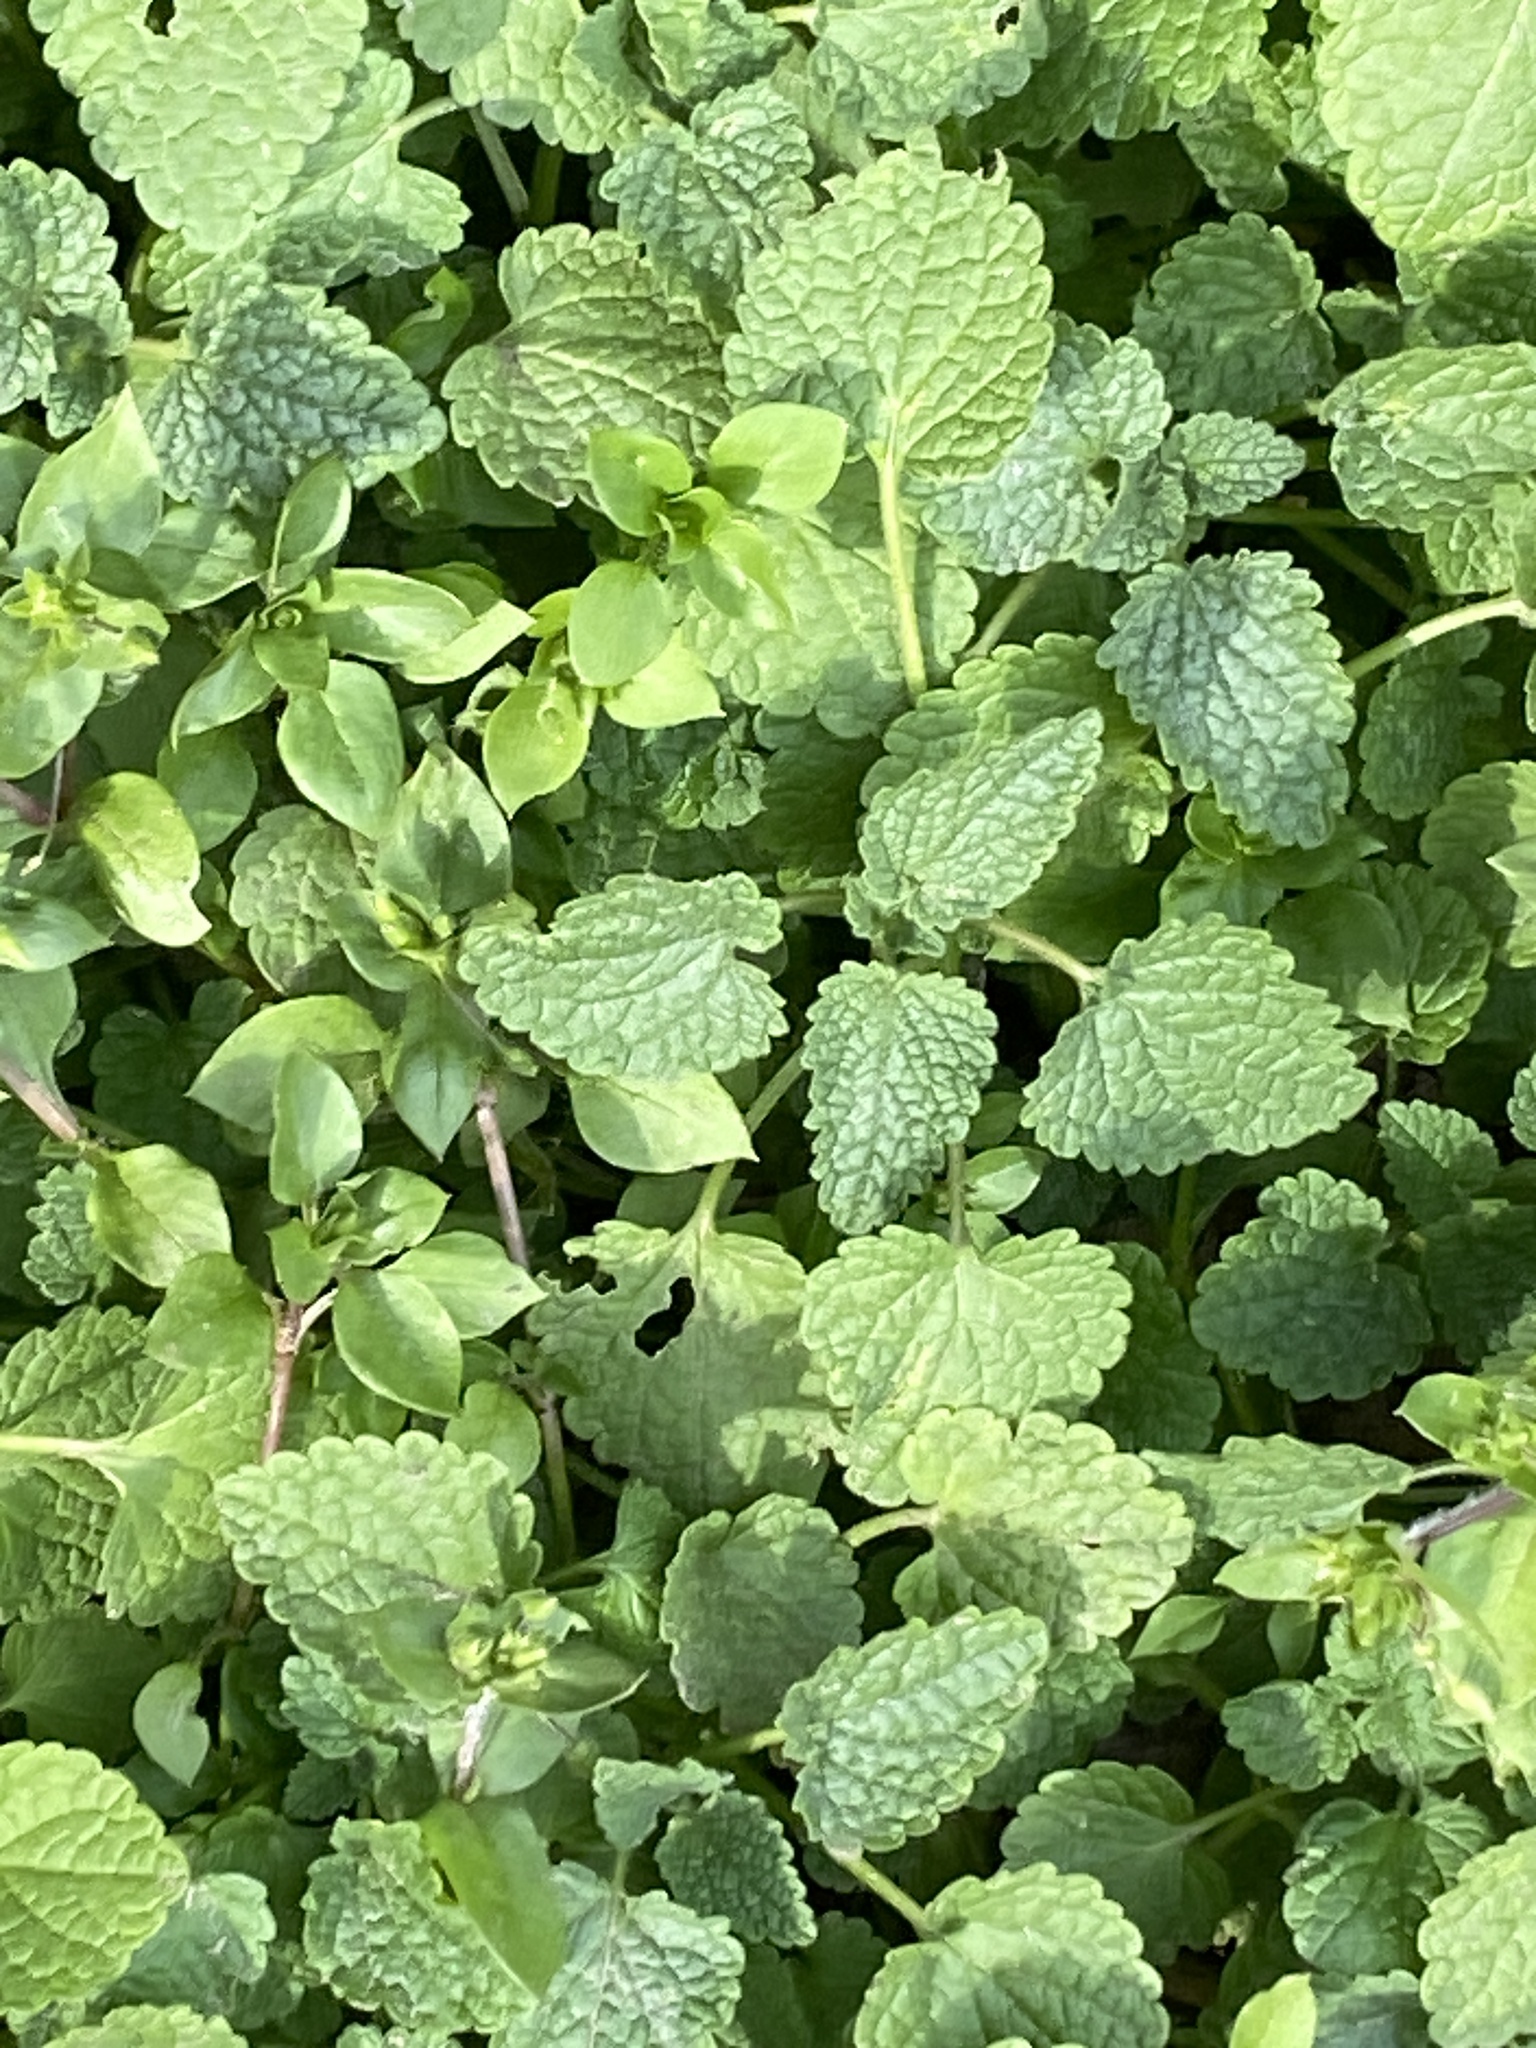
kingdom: Plantae
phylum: Tracheophyta
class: Magnoliopsida
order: Lamiales
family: Lamiaceae
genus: Lamium
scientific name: Lamium purpureum
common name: Red dead-nettle
